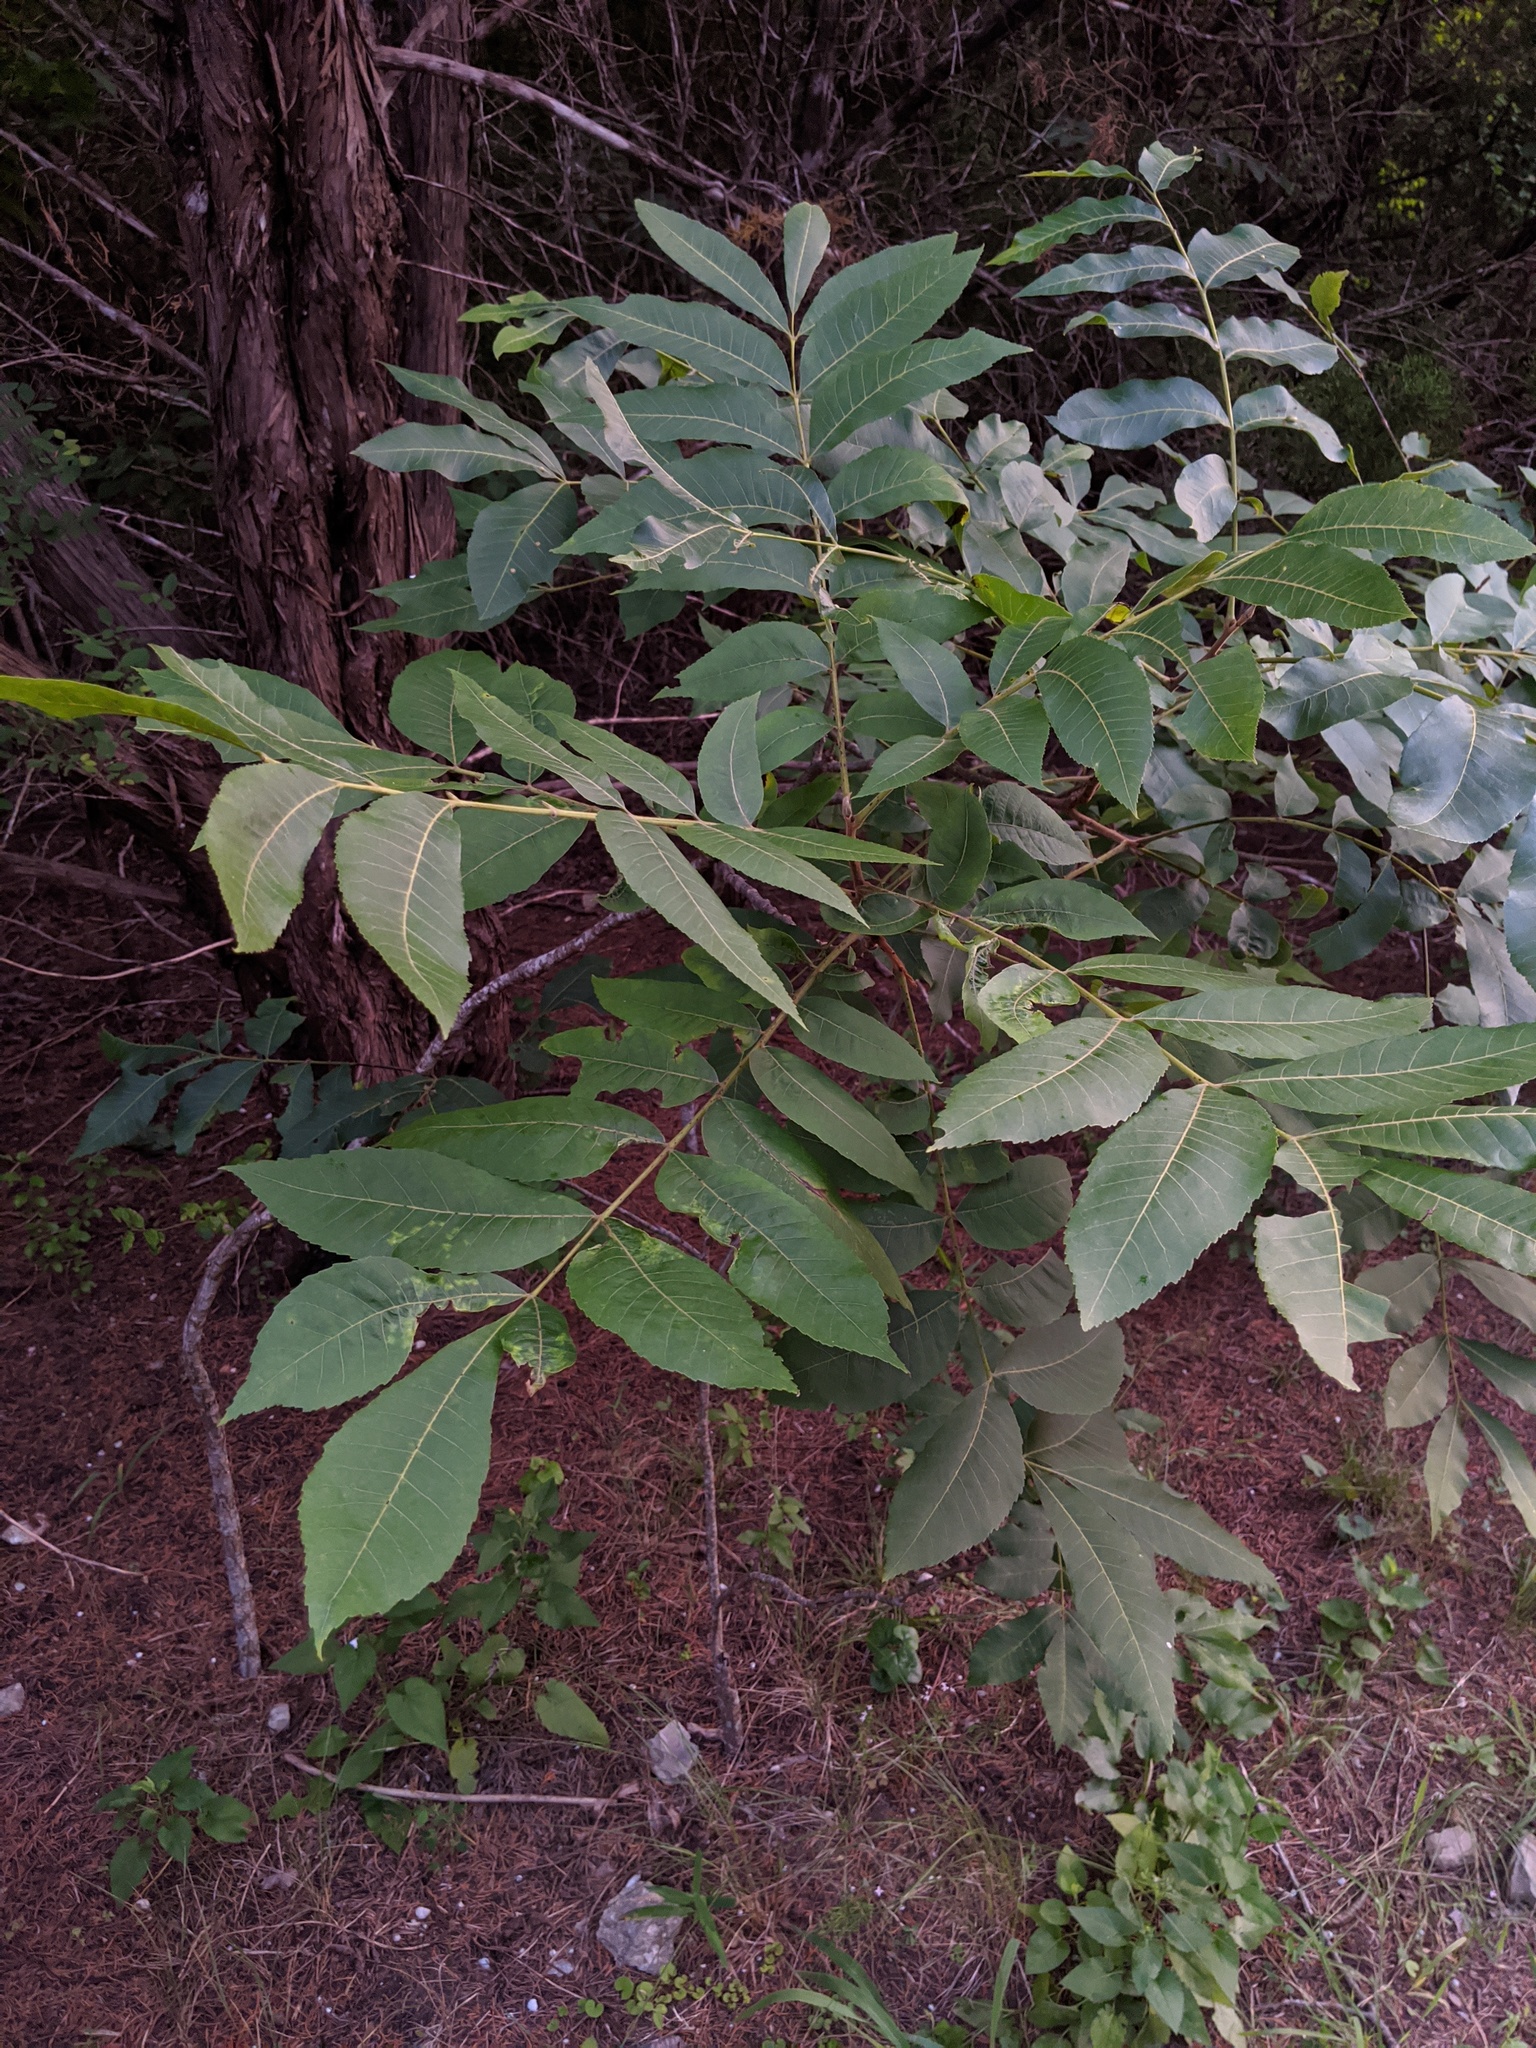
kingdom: Plantae
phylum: Tracheophyta
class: Magnoliopsida
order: Fagales
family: Juglandaceae
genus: Carya
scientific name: Carya illinoinensis
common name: Pecan
